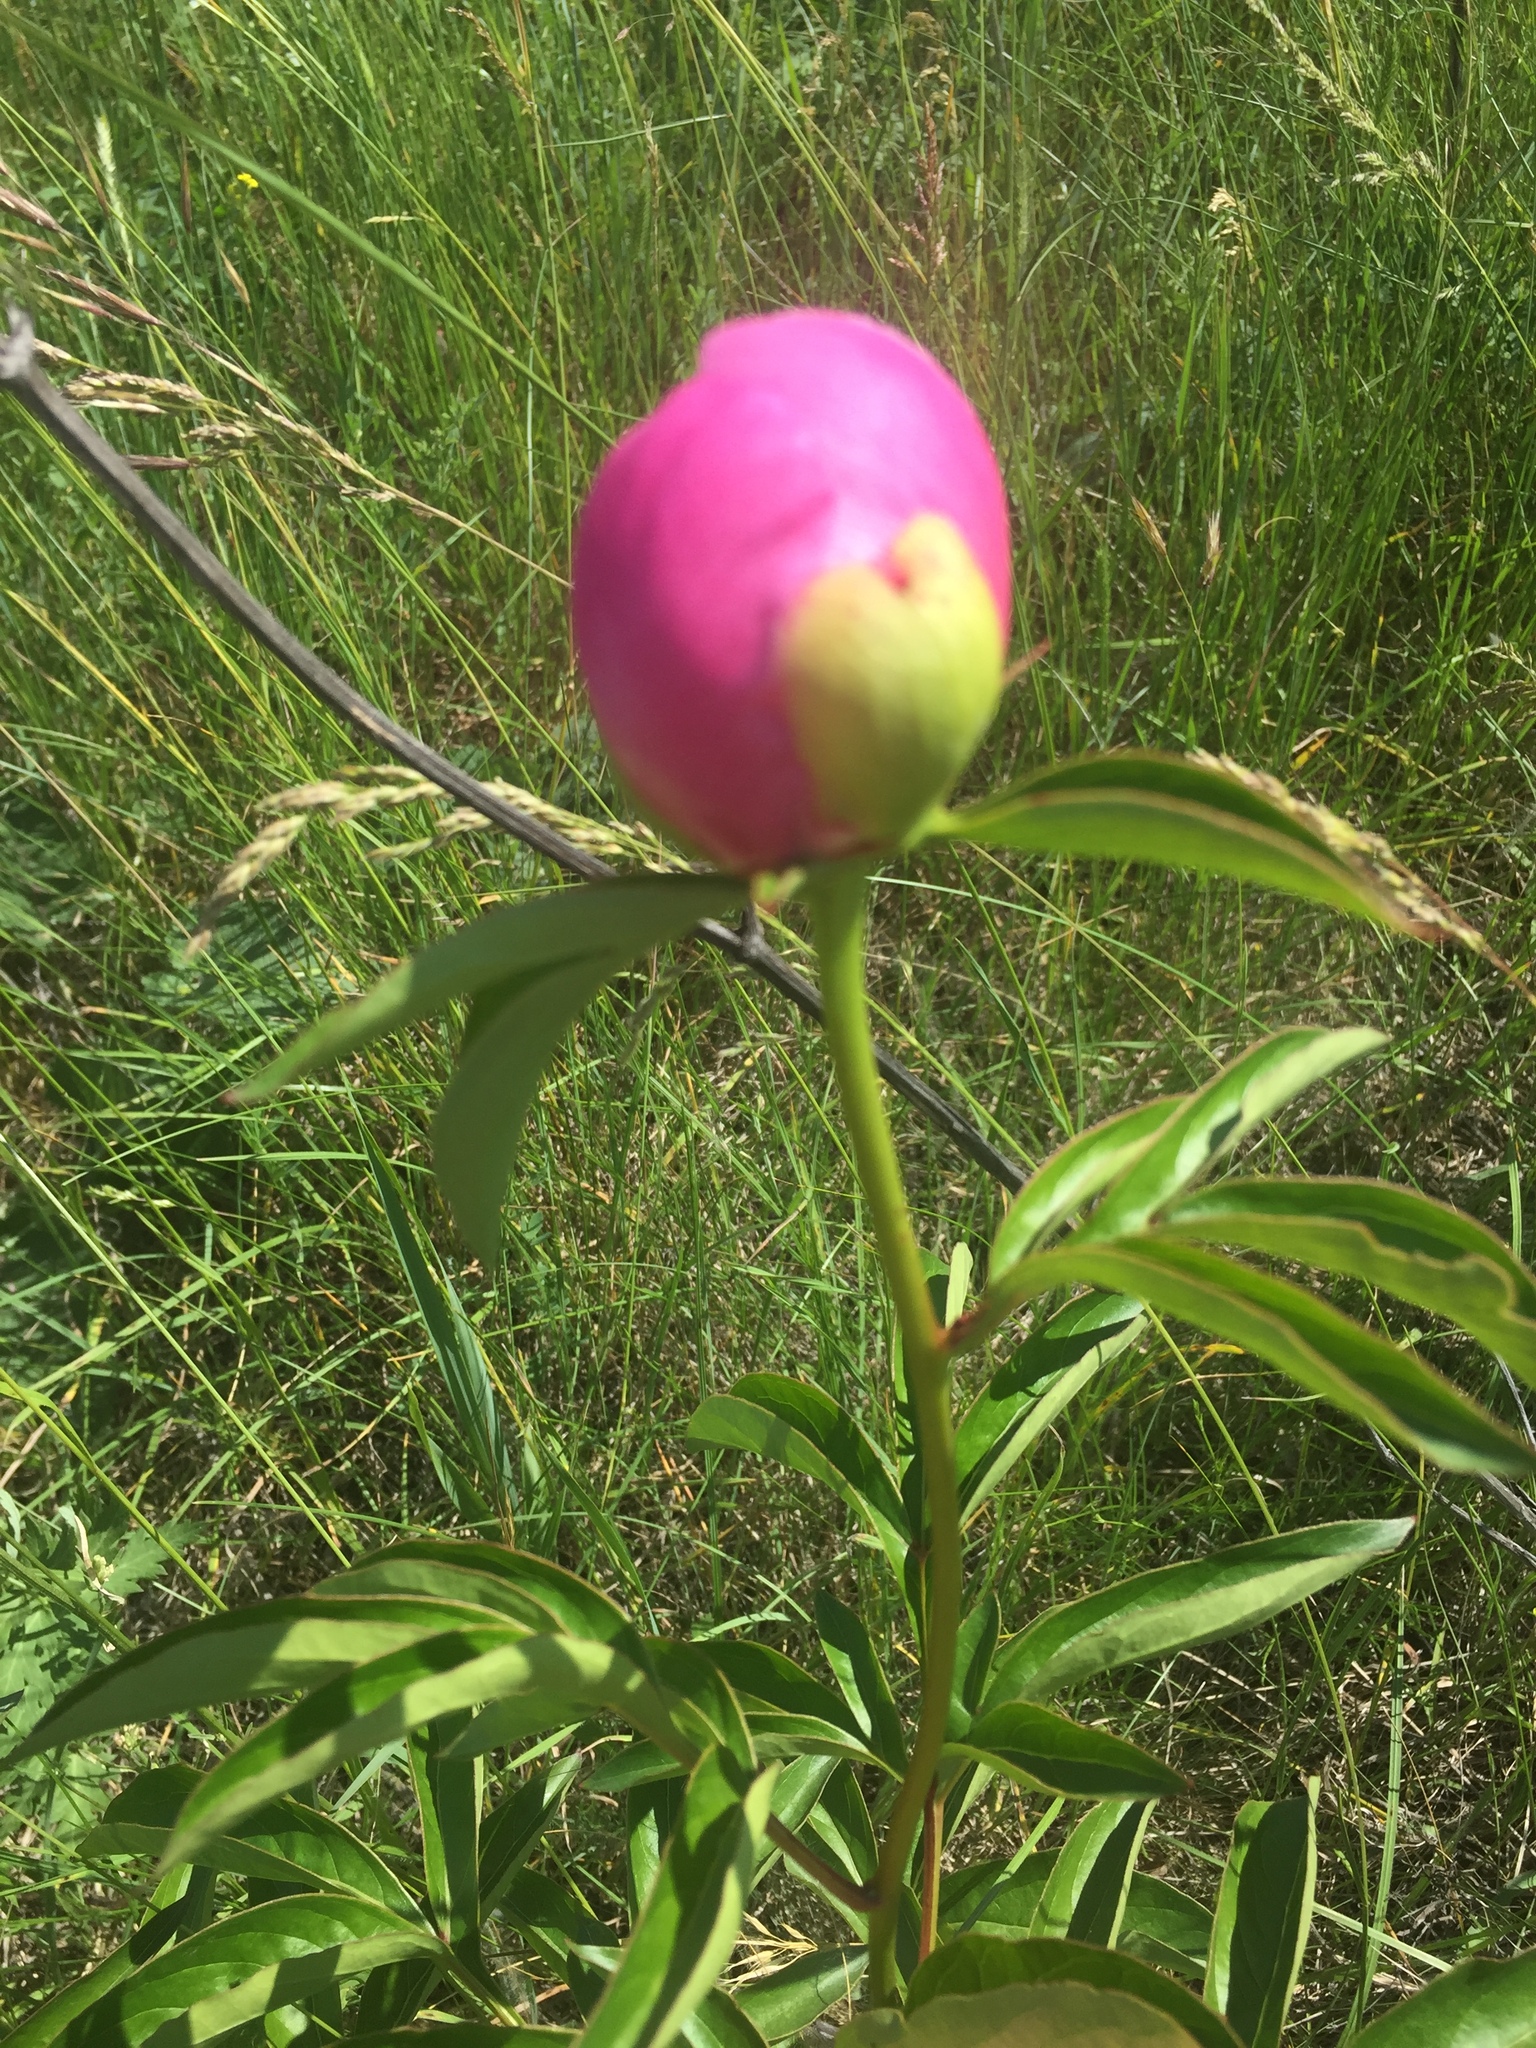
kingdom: Plantae
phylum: Tracheophyta
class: Magnoliopsida
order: Saxifragales
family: Paeoniaceae
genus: Paeonia
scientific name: Paeonia lactiflora
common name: Chinese peony
